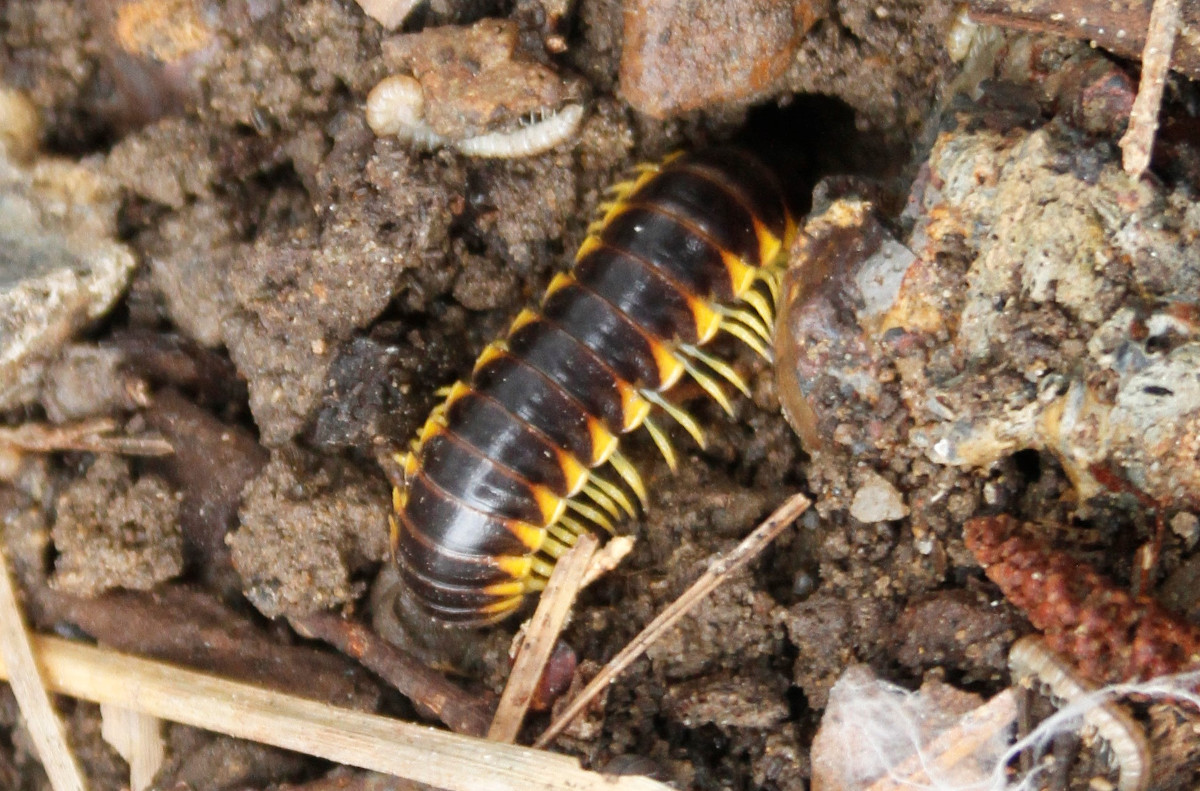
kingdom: Animalia
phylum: Arthropoda
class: Diplopoda
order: Polydesmida
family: Xystodesmidae
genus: Apheloria
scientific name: Apheloria tigana
